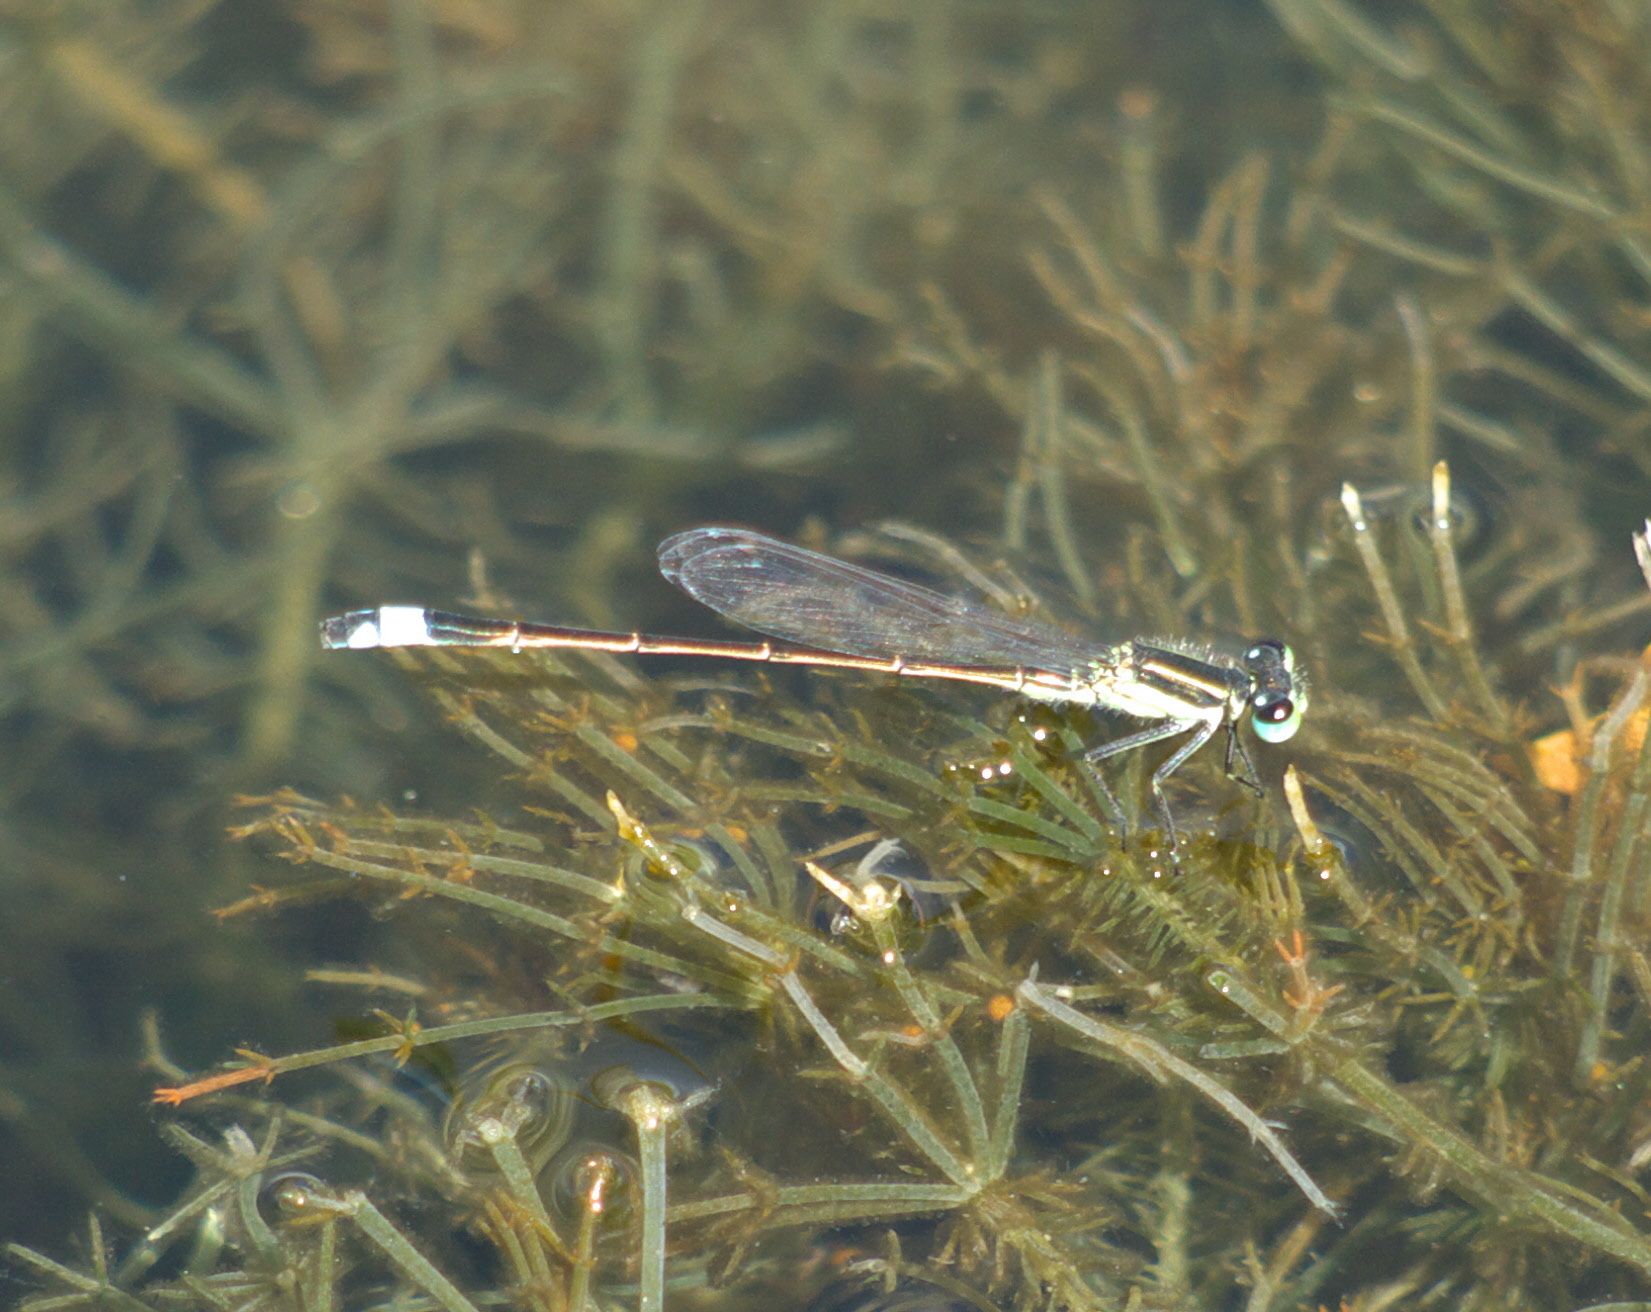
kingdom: Animalia
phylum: Arthropoda
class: Insecta
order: Odonata
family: Coenagrionidae
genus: Ischnura
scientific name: Ischnura ramburii
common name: Rambur's forktail
